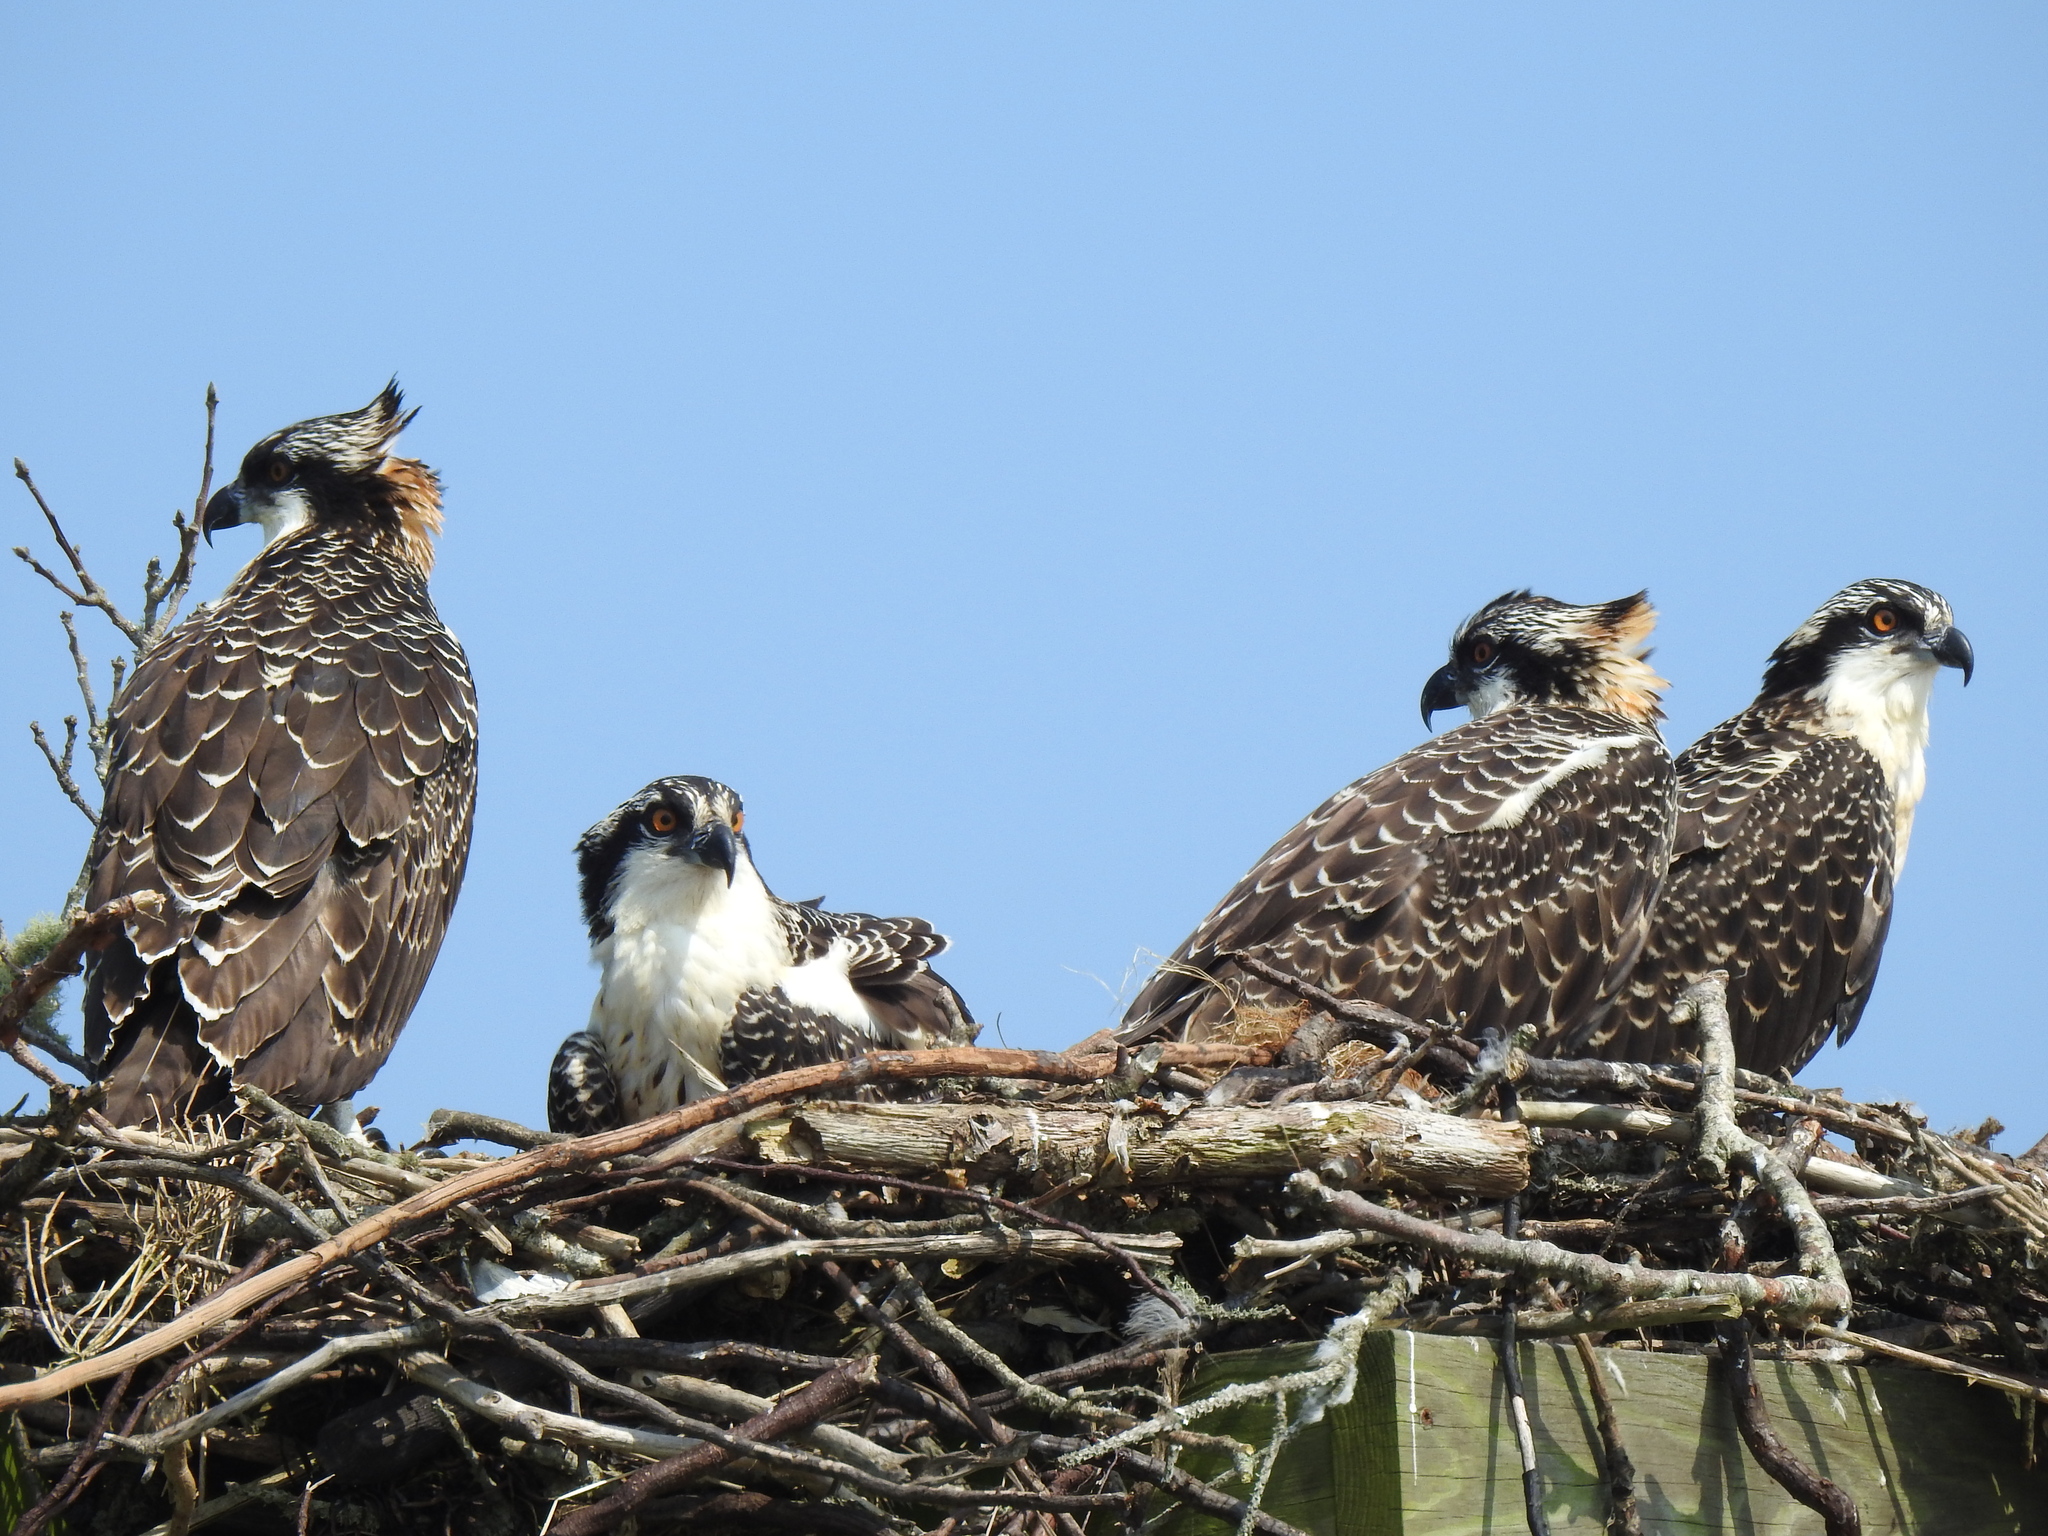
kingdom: Animalia
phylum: Chordata
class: Aves
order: Accipitriformes
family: Pandionidae
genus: Pandion
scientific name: Pandion haliaetus
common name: Osprey
